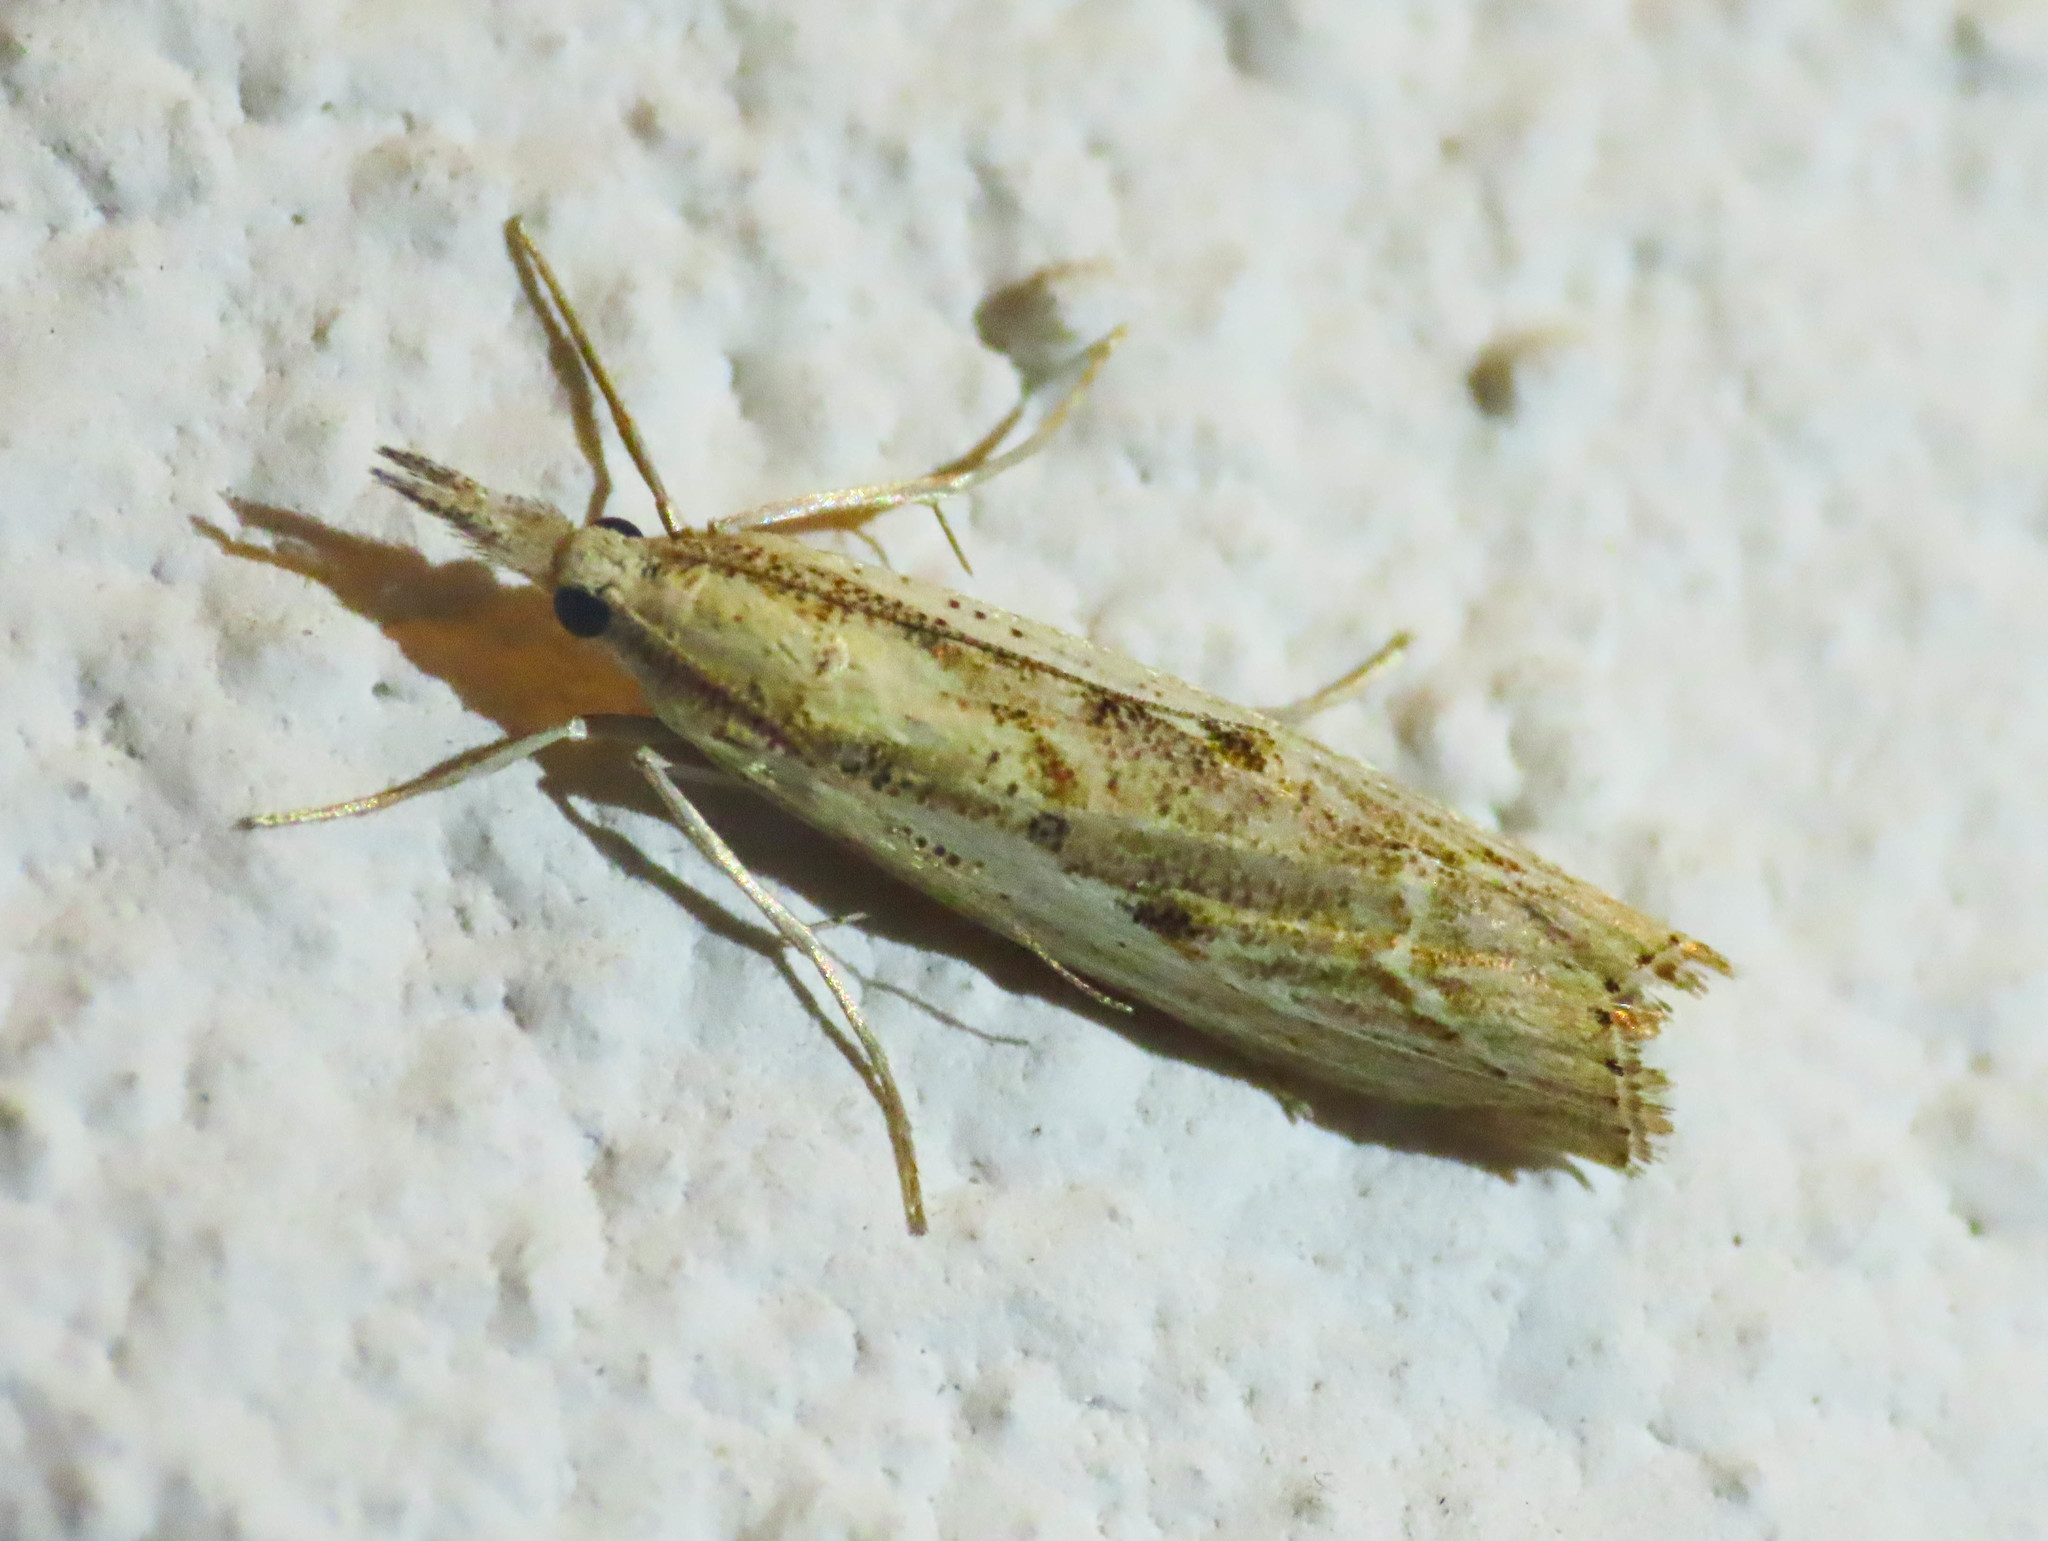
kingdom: Animalia
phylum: Arthropoda
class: Insecta
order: Lepidoptera
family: Crambidae
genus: Agriphila
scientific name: Agriphila inquinatella
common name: Barred grass-veneer
